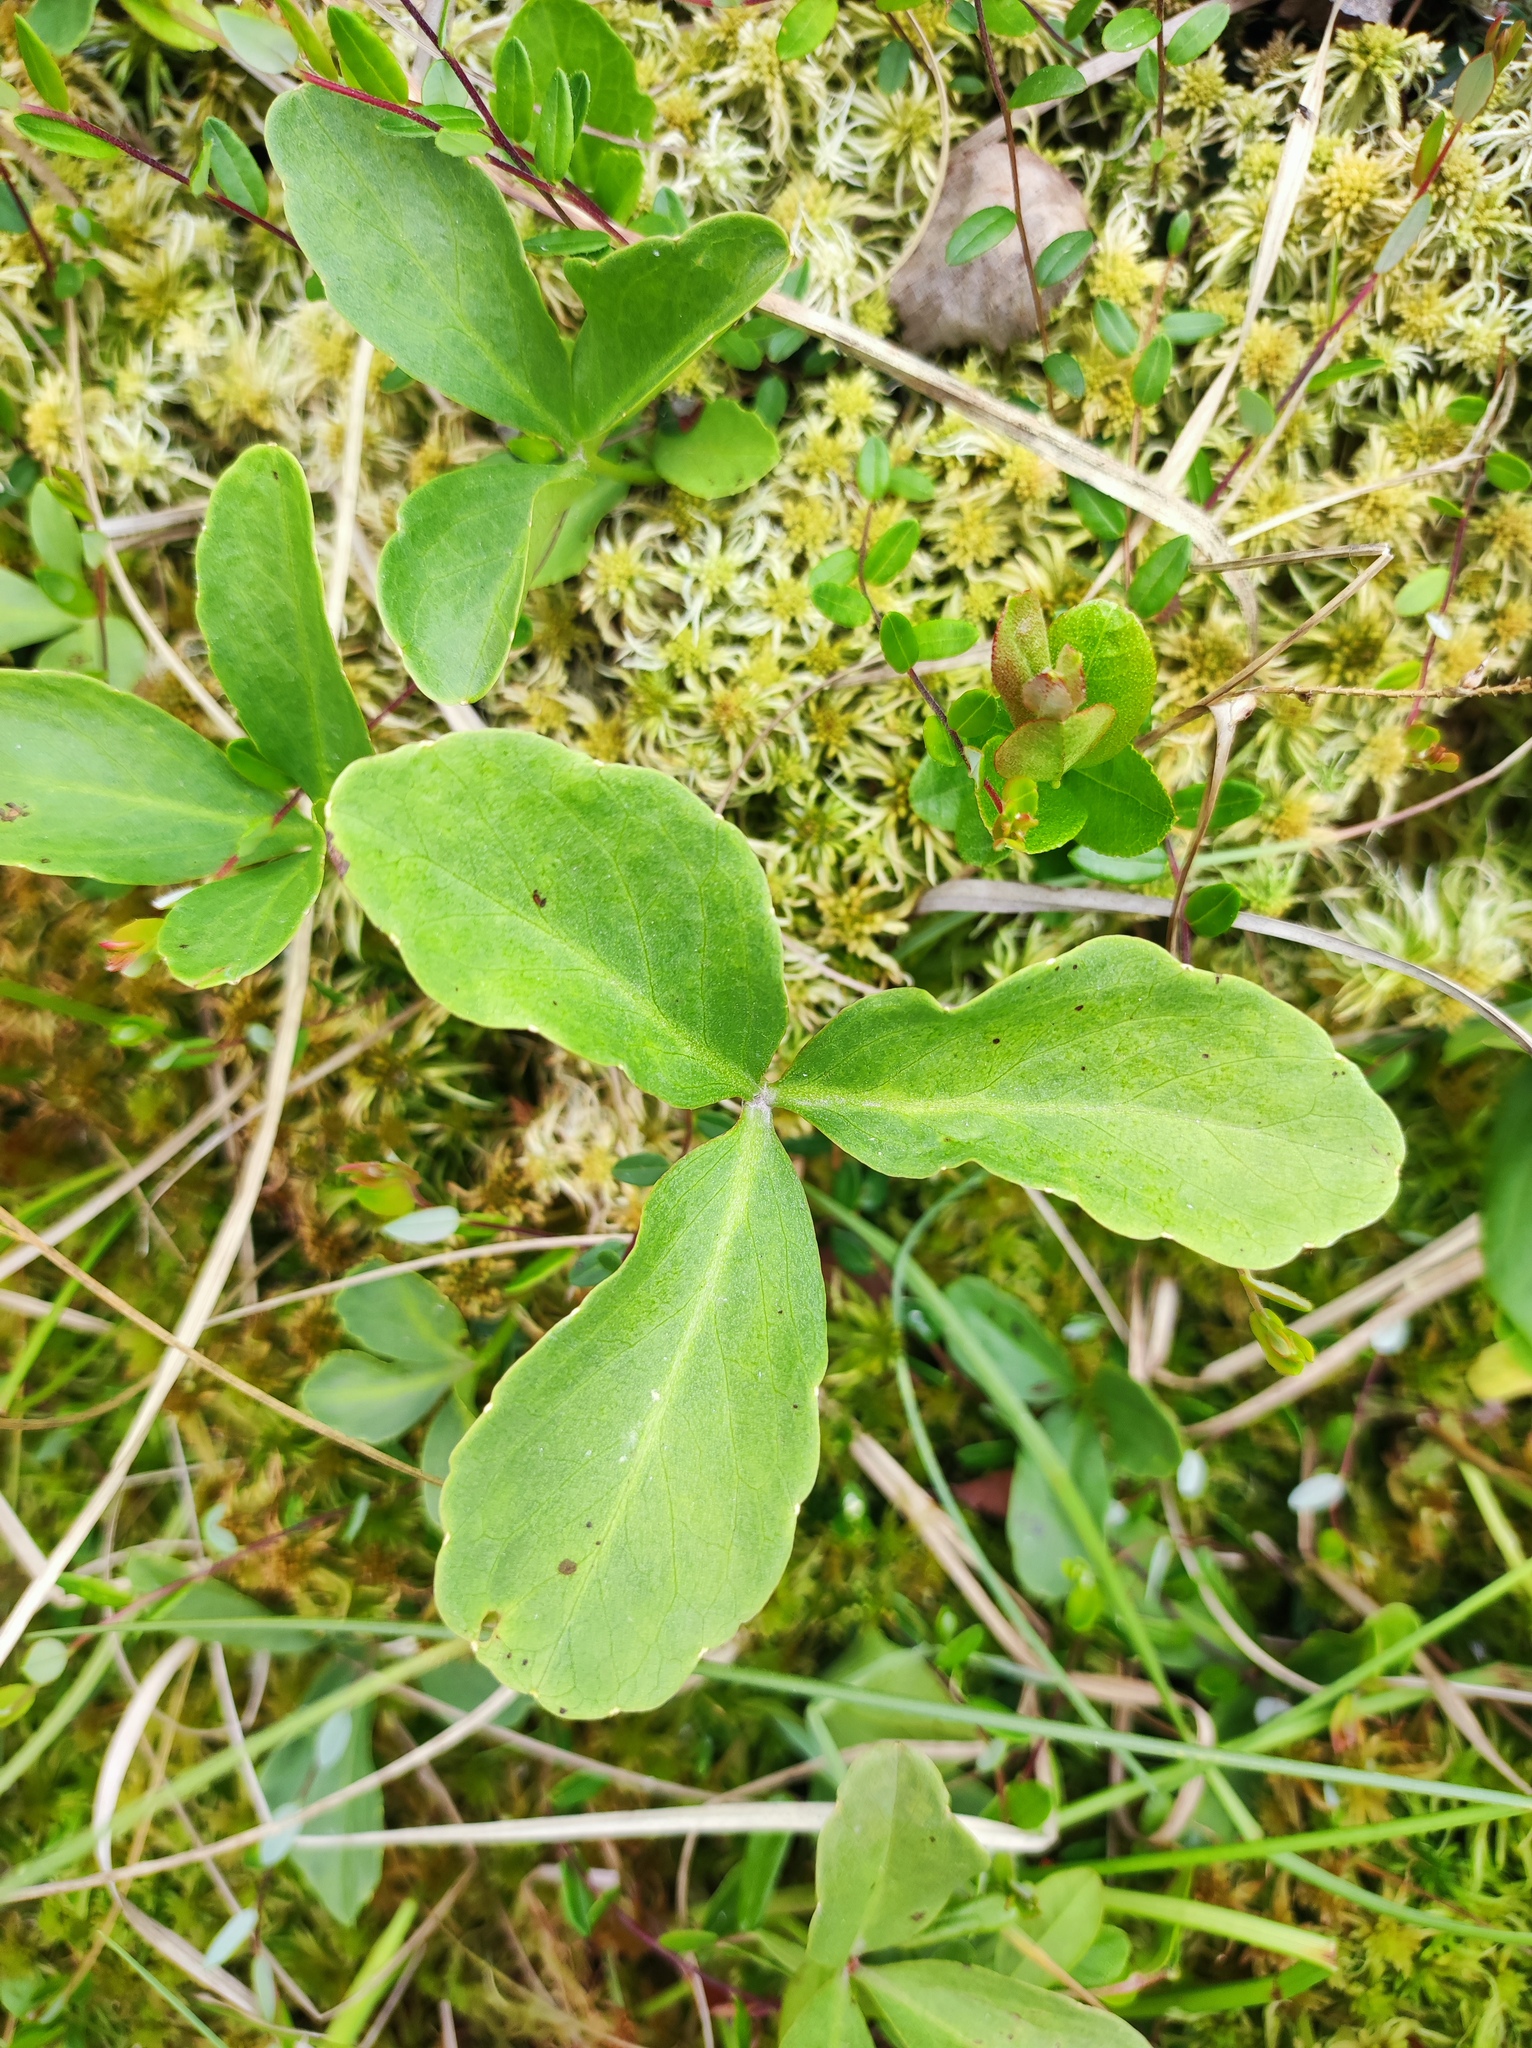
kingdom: Plantae
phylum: Tracheophyta
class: Magnoliopsida
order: Asterales
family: Menyanthaceae
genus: Menyanthes
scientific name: Menyanthes trifoliata
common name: Bogbean
